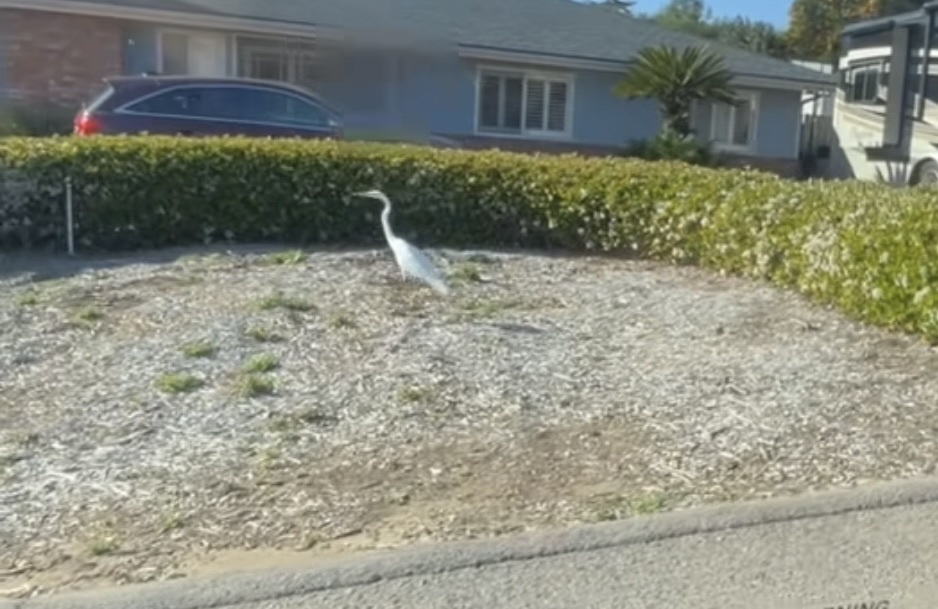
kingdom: Animalia
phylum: Chordata
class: Aves
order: Pelecaniformes
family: Ardeidae
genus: Ardea
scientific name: Ardea alba
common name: Great egret
